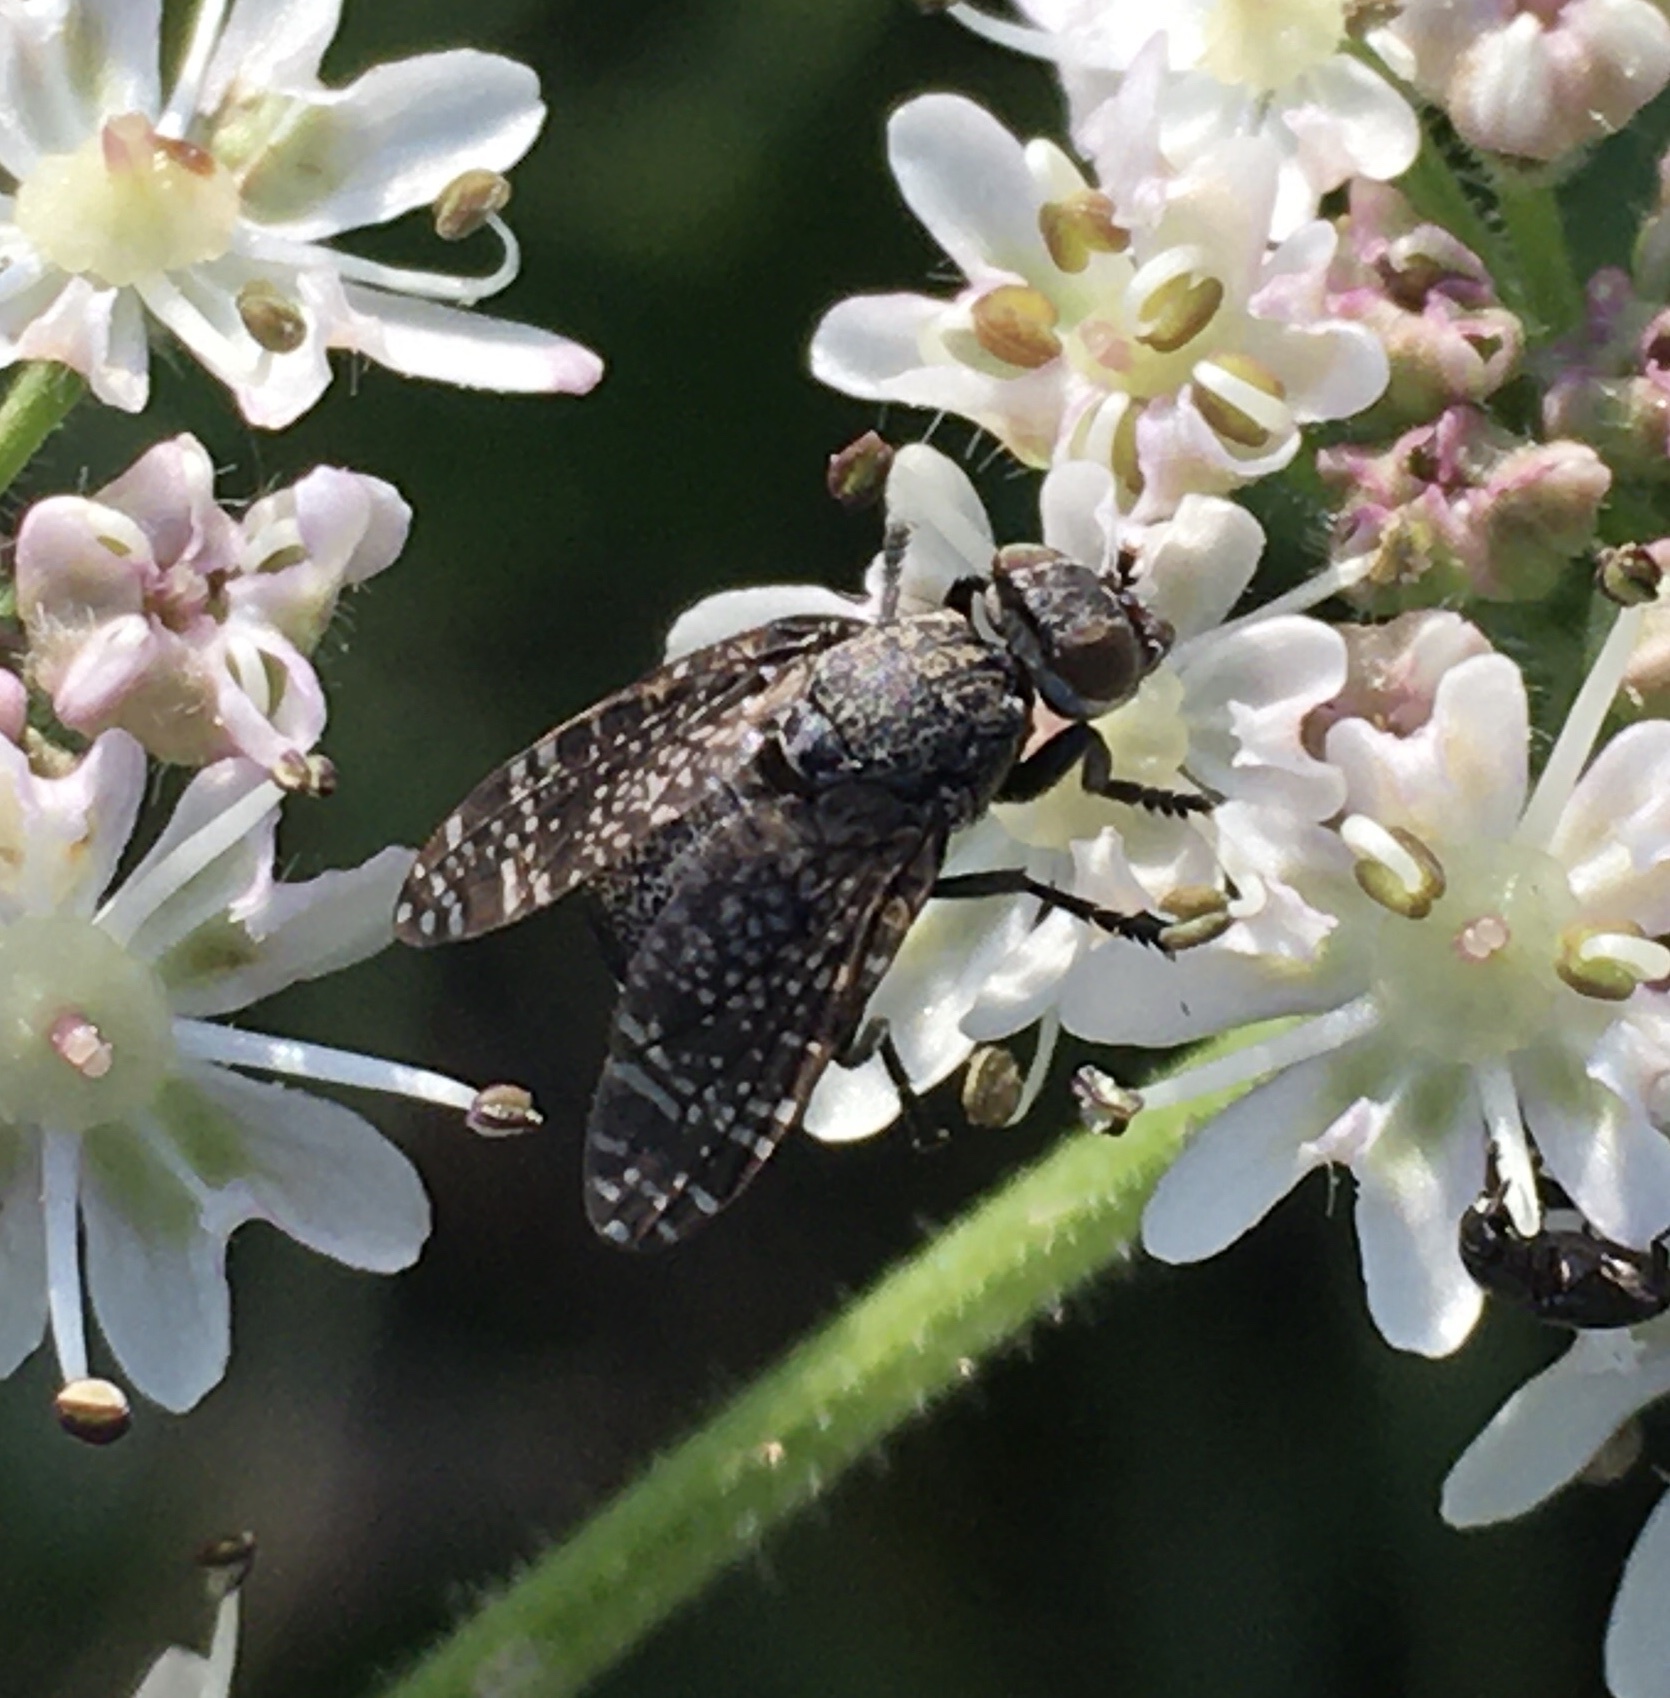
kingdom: Animalia
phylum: Arthropoda
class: Insecta
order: Diptera
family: Platystomatidae
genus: Platystoma
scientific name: Platystoma seminationis
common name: Fly
